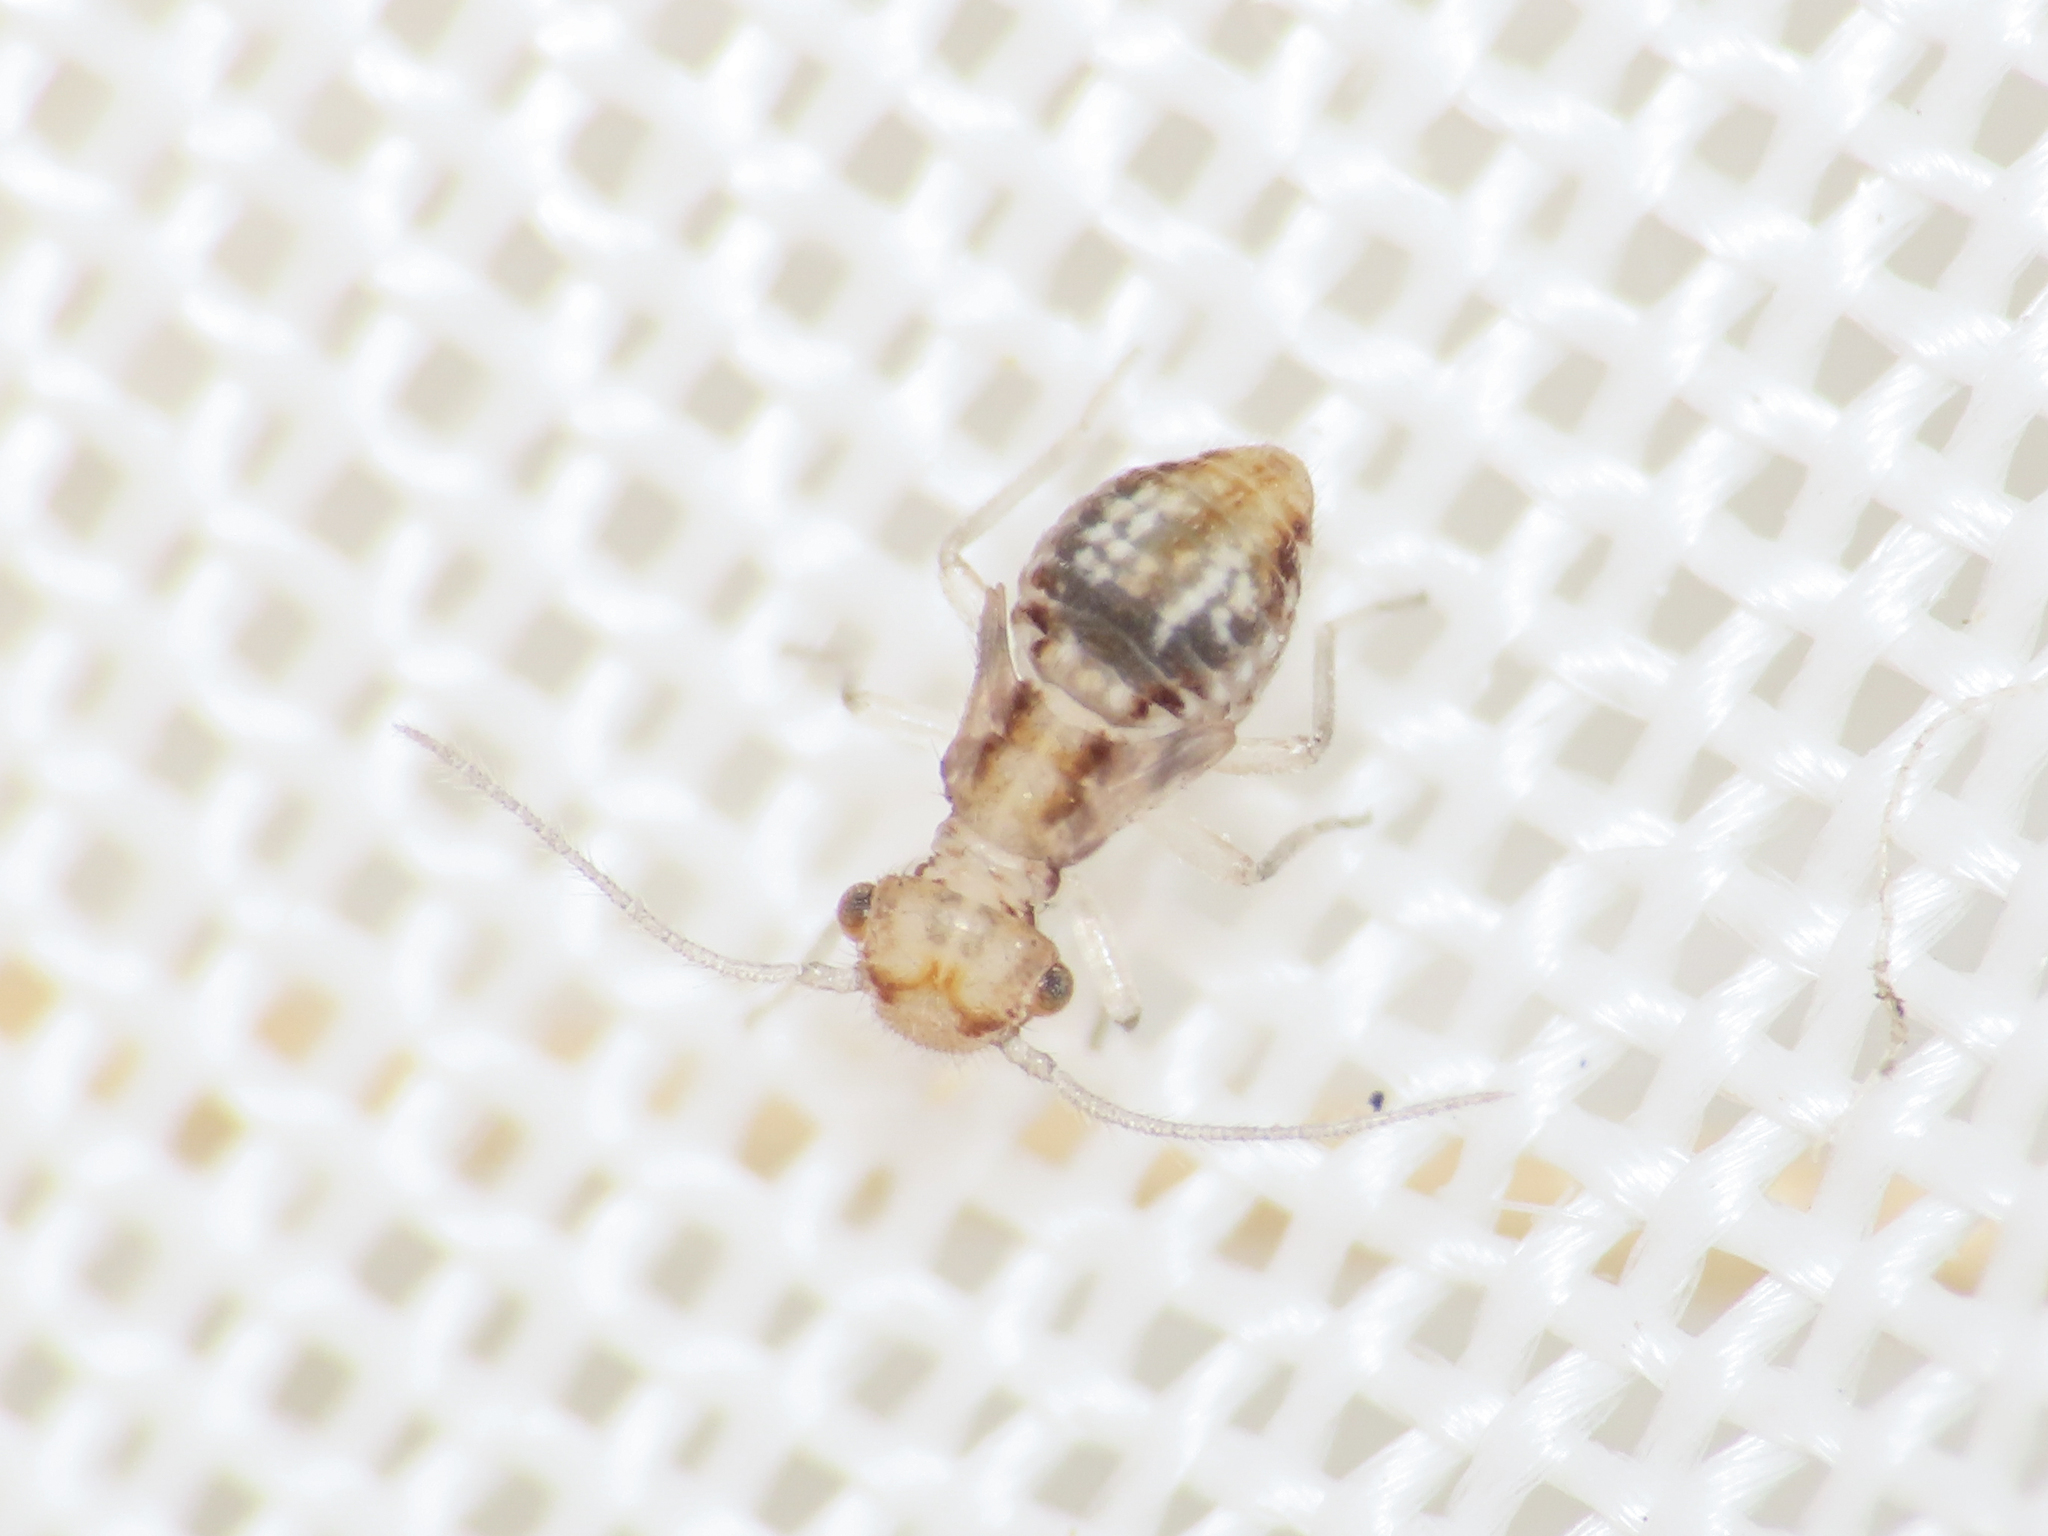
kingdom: Animalia
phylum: Arthropoda
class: Insecta
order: Psocodea
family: Ectopsocidae
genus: Ectopsocus
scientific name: Ectopsocus petersi
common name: Medium-sized bark louse
